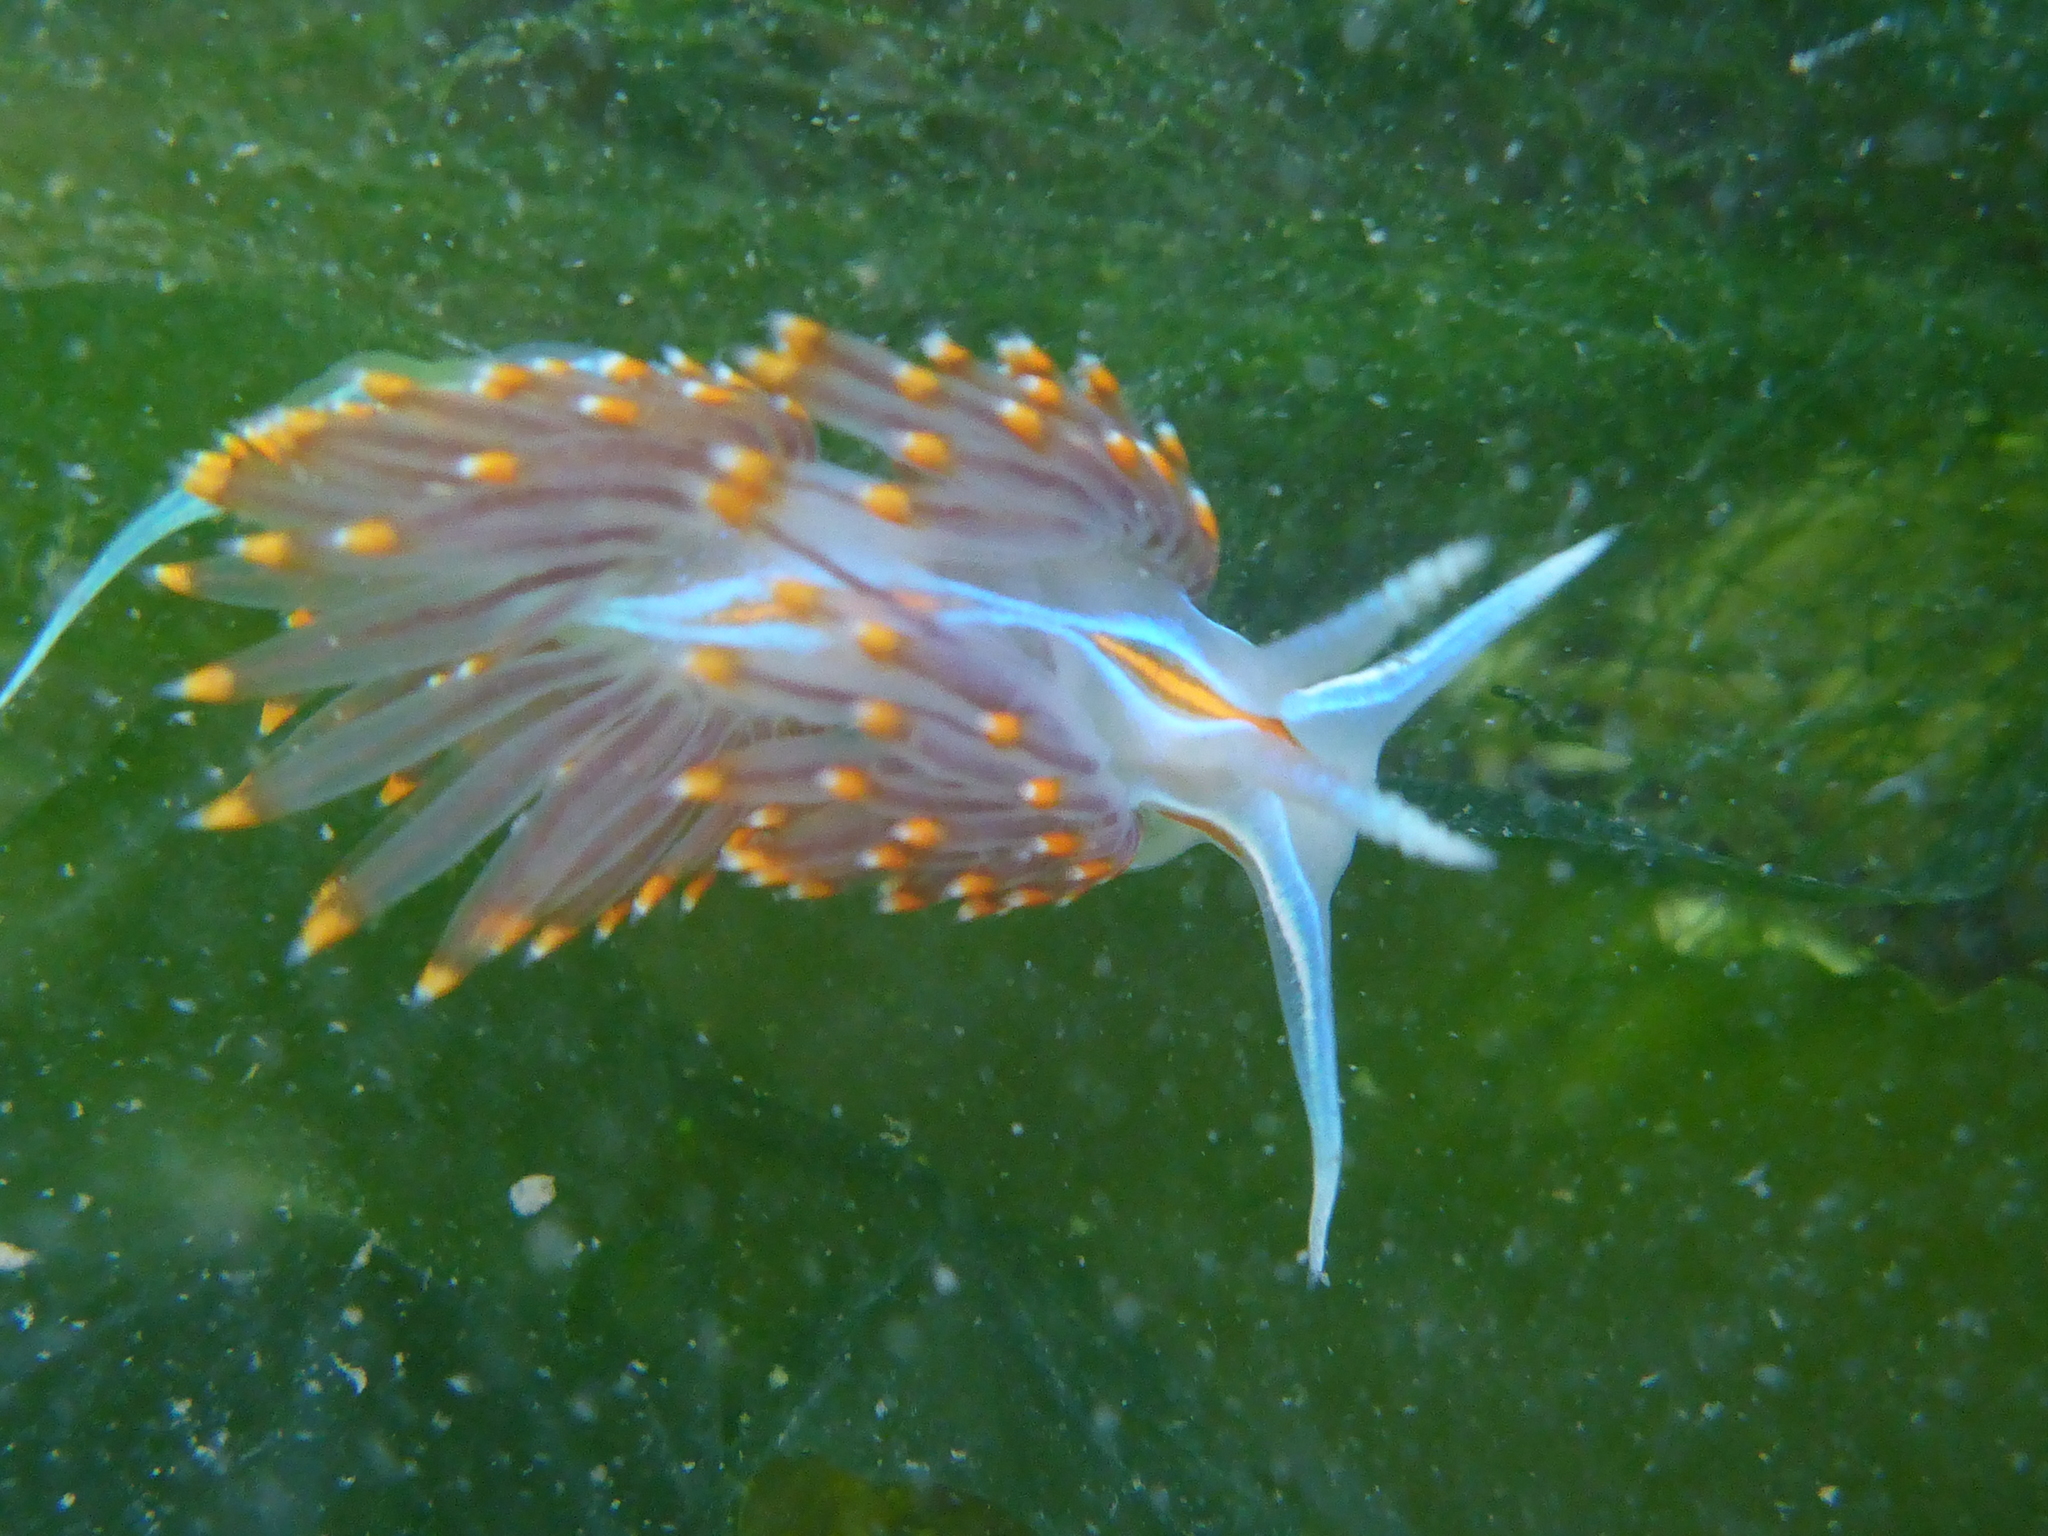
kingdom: Animalia
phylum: Mollusca
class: Gastropoda
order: Nudibranchia
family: Myrrhinidae
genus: Hermissenda
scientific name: Hermissenda opalescens
